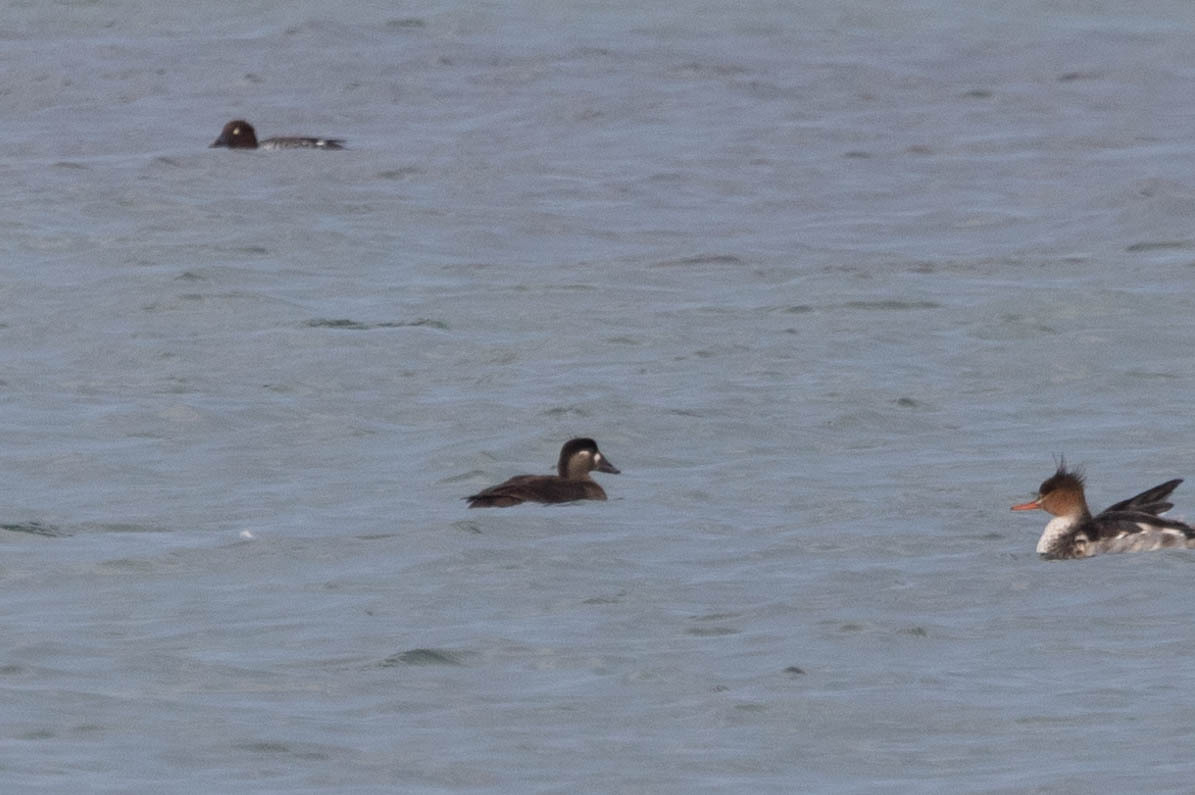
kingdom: Animalia
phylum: Chordata
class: Aves
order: Anseriformes
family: Anatidae
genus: Melanitta
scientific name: Melanitta perspicillata
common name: Surf scoter
